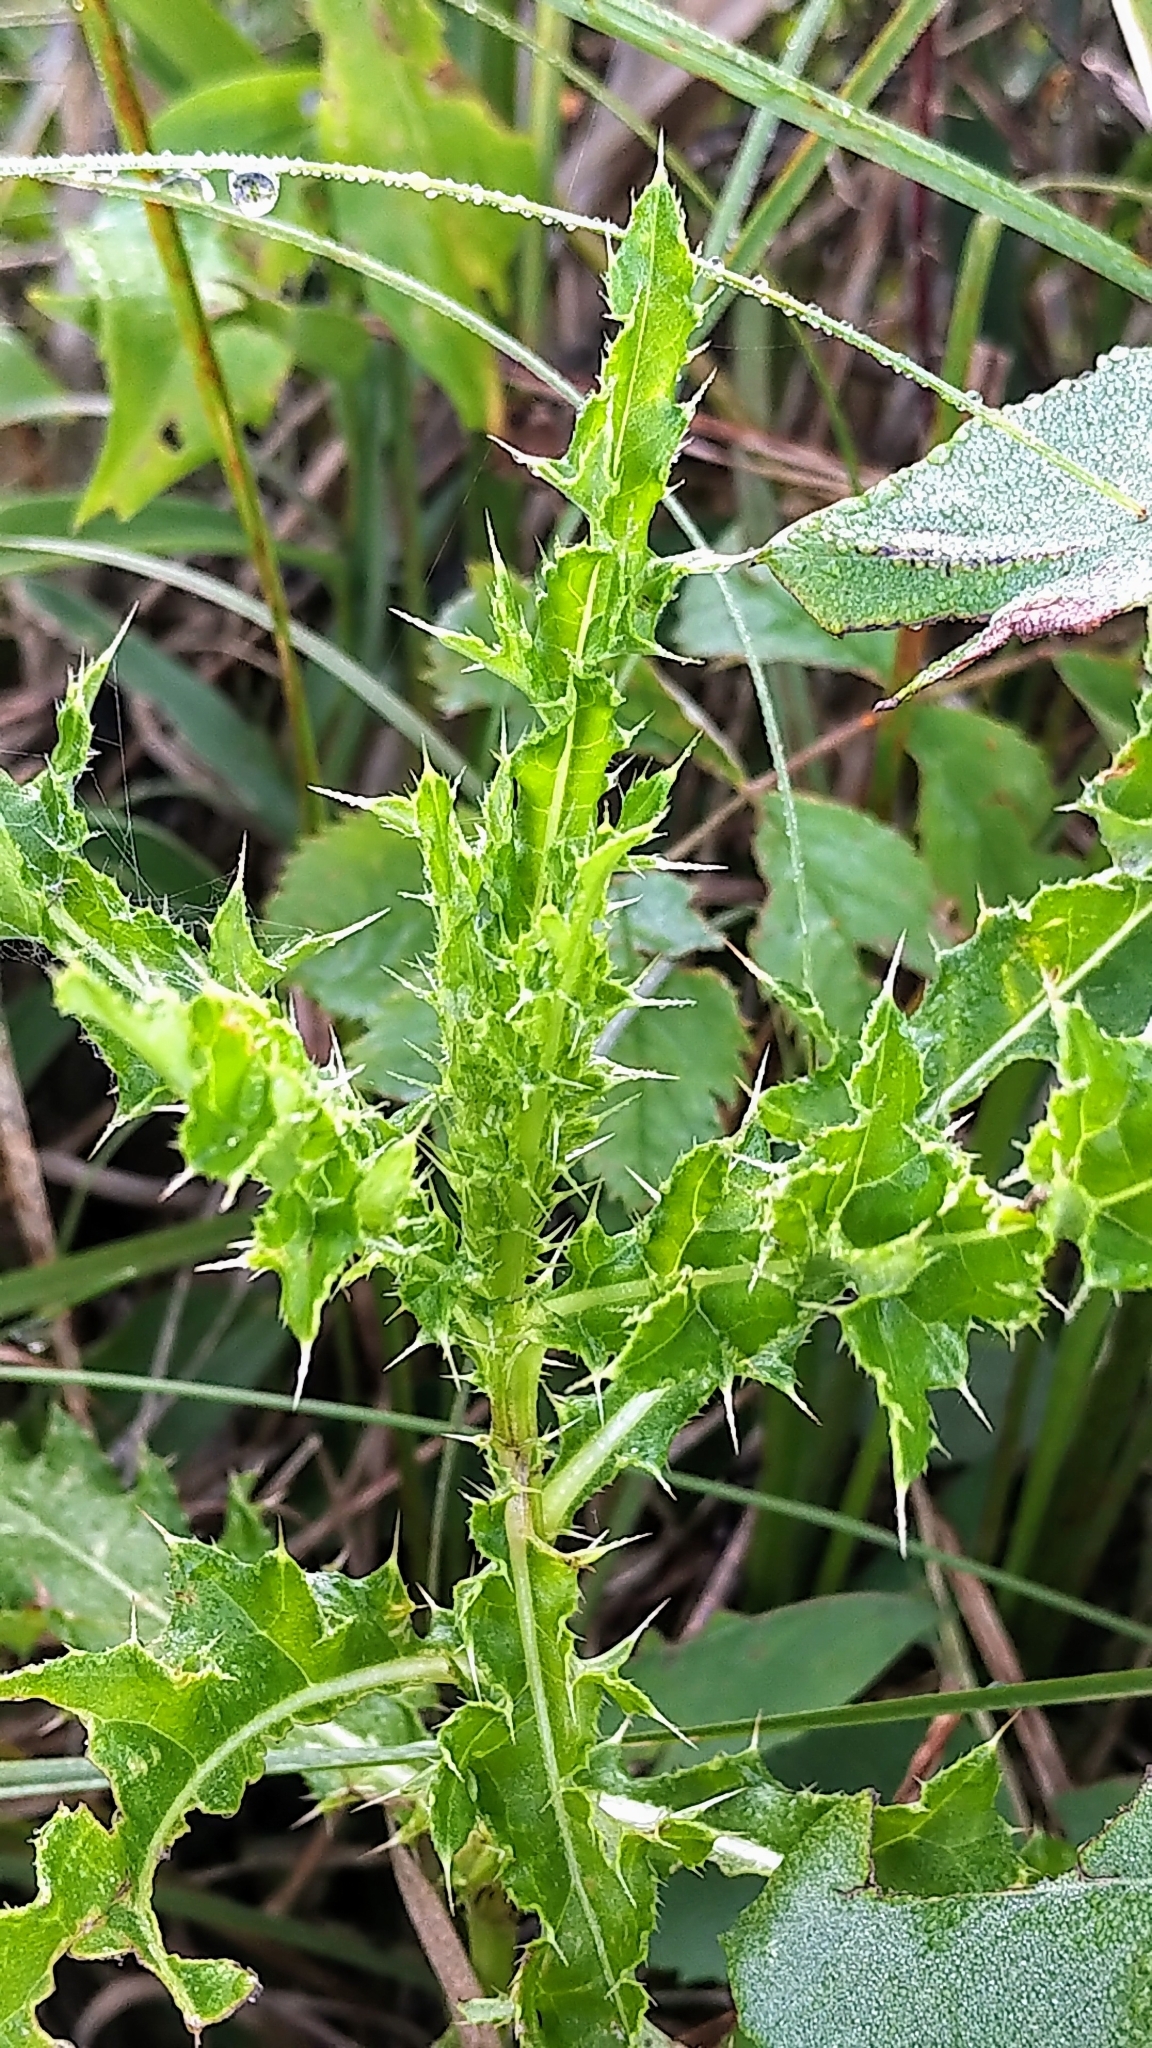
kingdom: Plantae
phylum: Tracheophyta
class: Magnoliopsida
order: Asterales
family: Asteraceae
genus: Cirsium
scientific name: Cirsium arvense
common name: Creeping thistle
